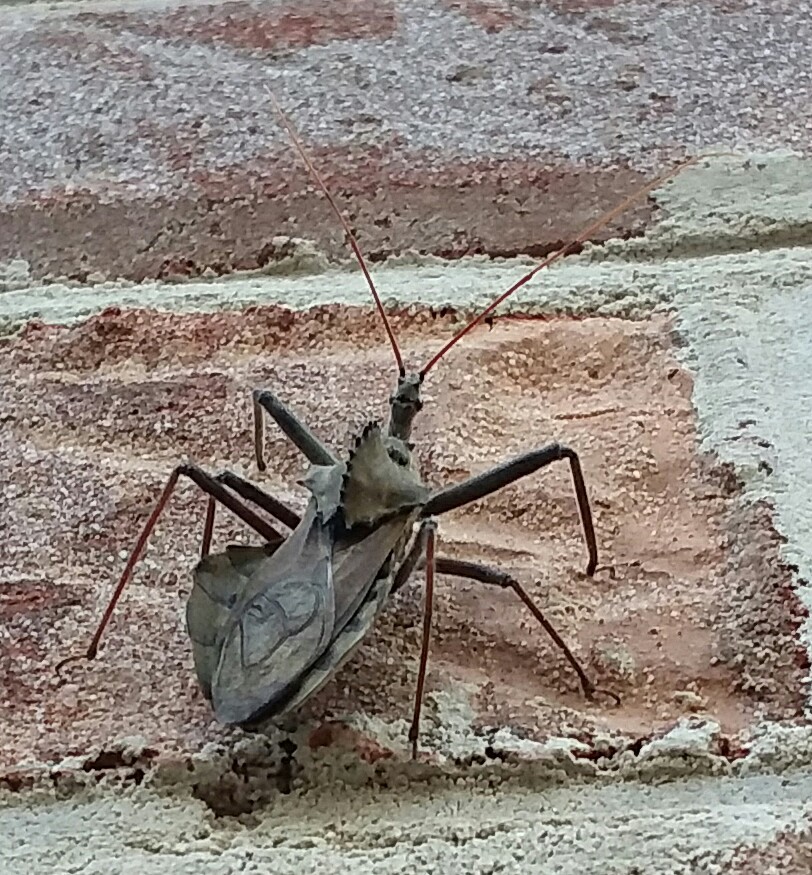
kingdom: Animalia
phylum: Arthropoda
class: Insecta
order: Hemiptera
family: Reduviidae
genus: Arilus
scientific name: Arilus cristatus
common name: North american wheel bug
